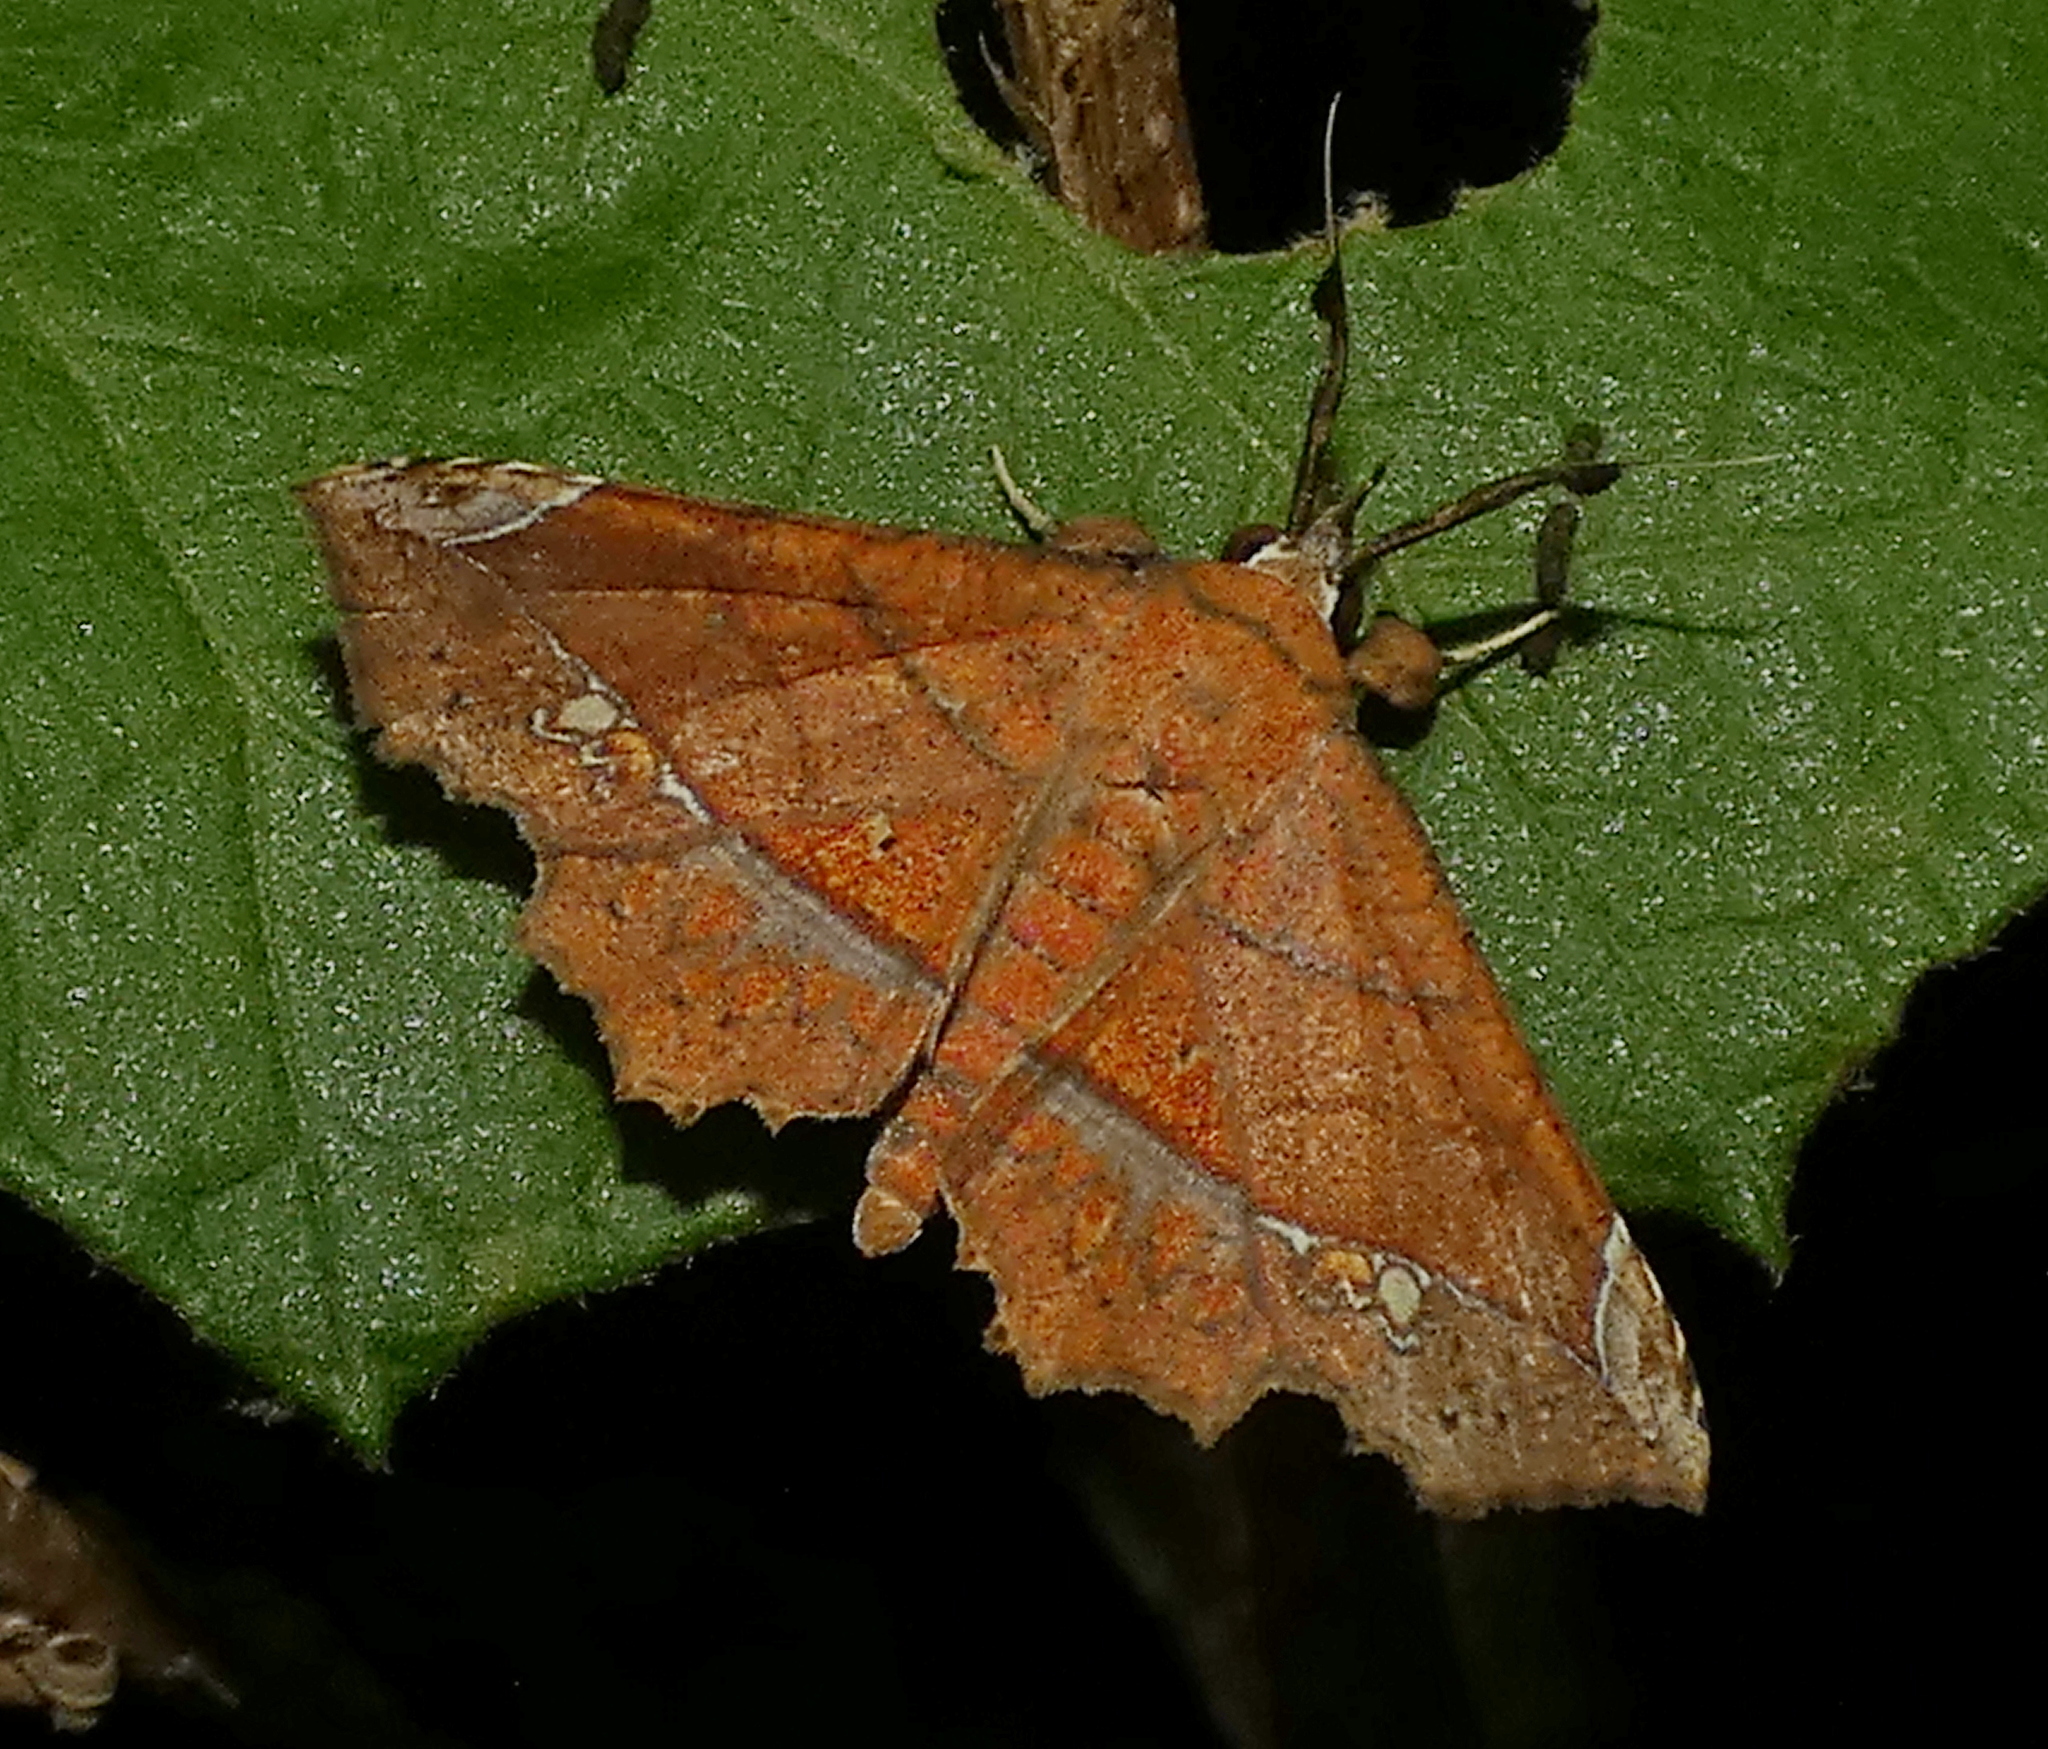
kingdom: Animalia
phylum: Arthropoda
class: Insecta
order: Lepidoptera
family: Erebidae
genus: Syllectra
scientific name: Syllectra erycata
